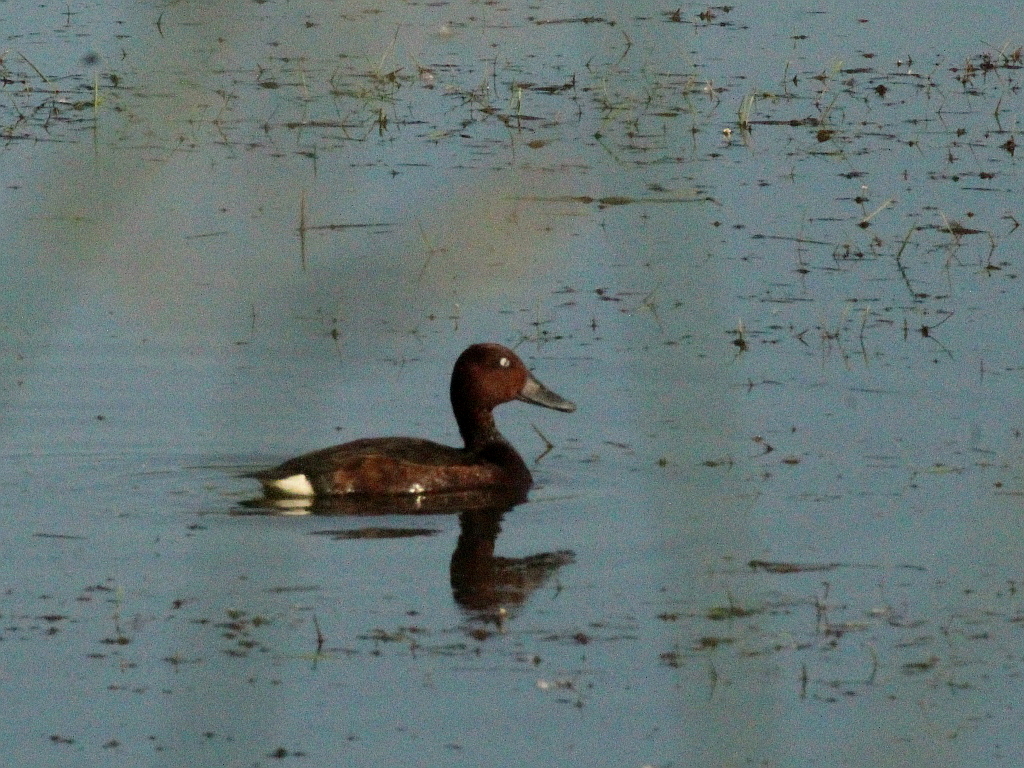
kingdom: Animalia
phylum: Chordata
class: Aves
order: Anseriformes
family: Anatidae
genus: Aythya
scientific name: Aythya nyroca
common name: Ferruginous duck
